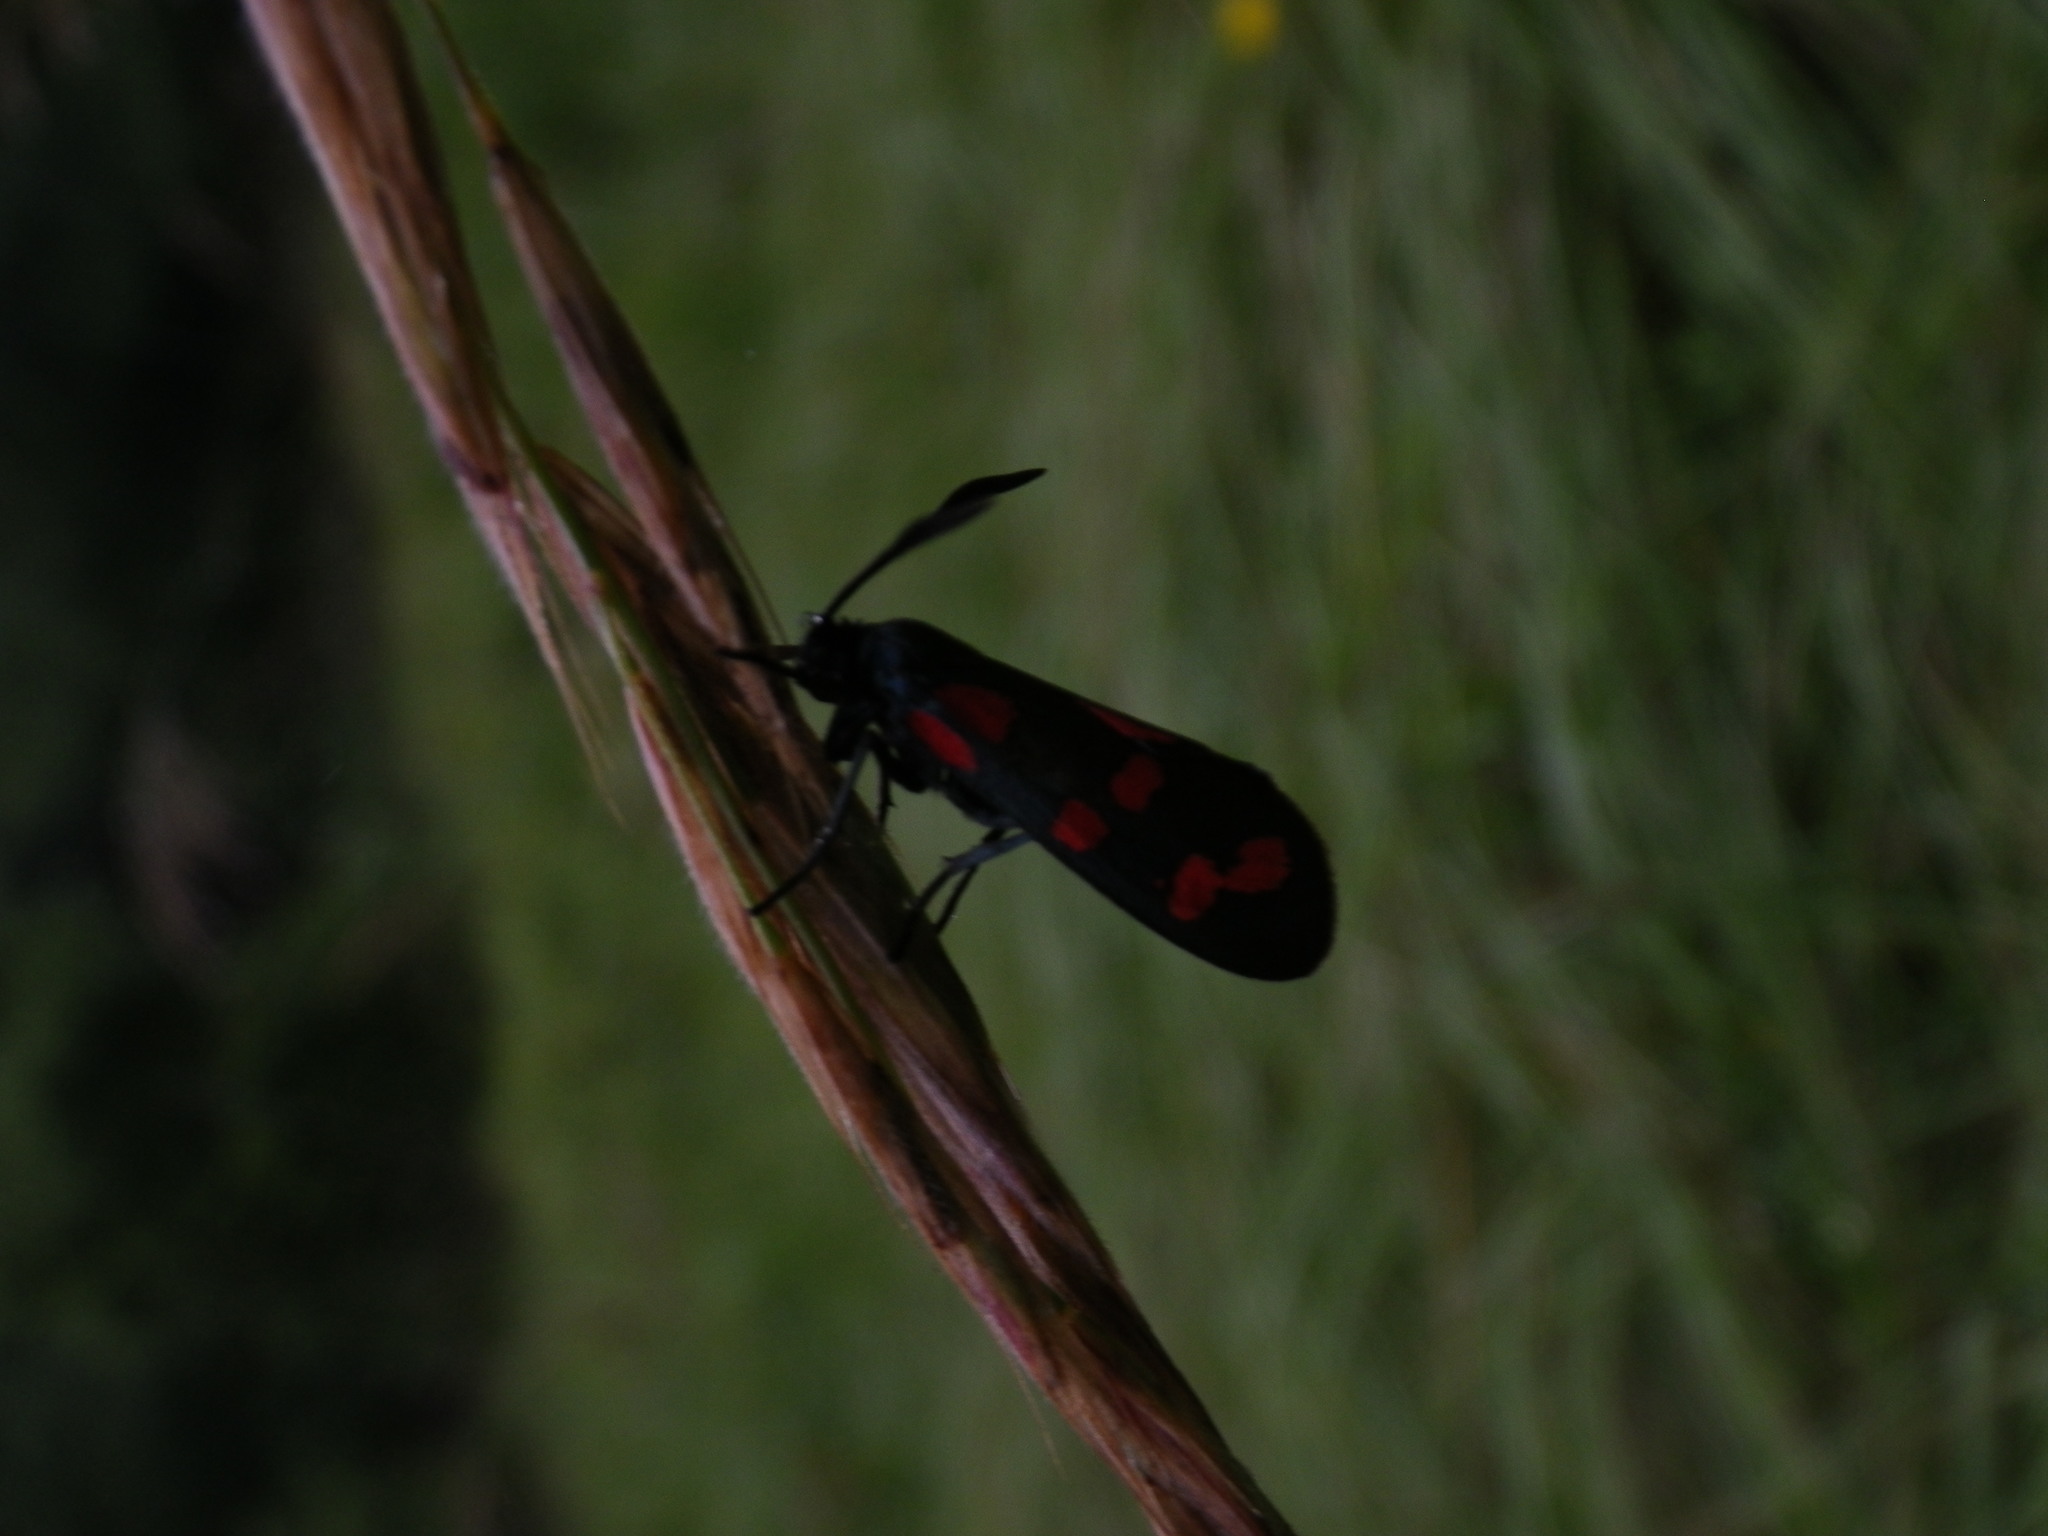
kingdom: Animalia
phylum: Arthropoda
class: Insecta
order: Lepidoptera
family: Zygaenidae
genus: Zygaena
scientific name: Zygaena filipendulae
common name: Six-spot burnet
